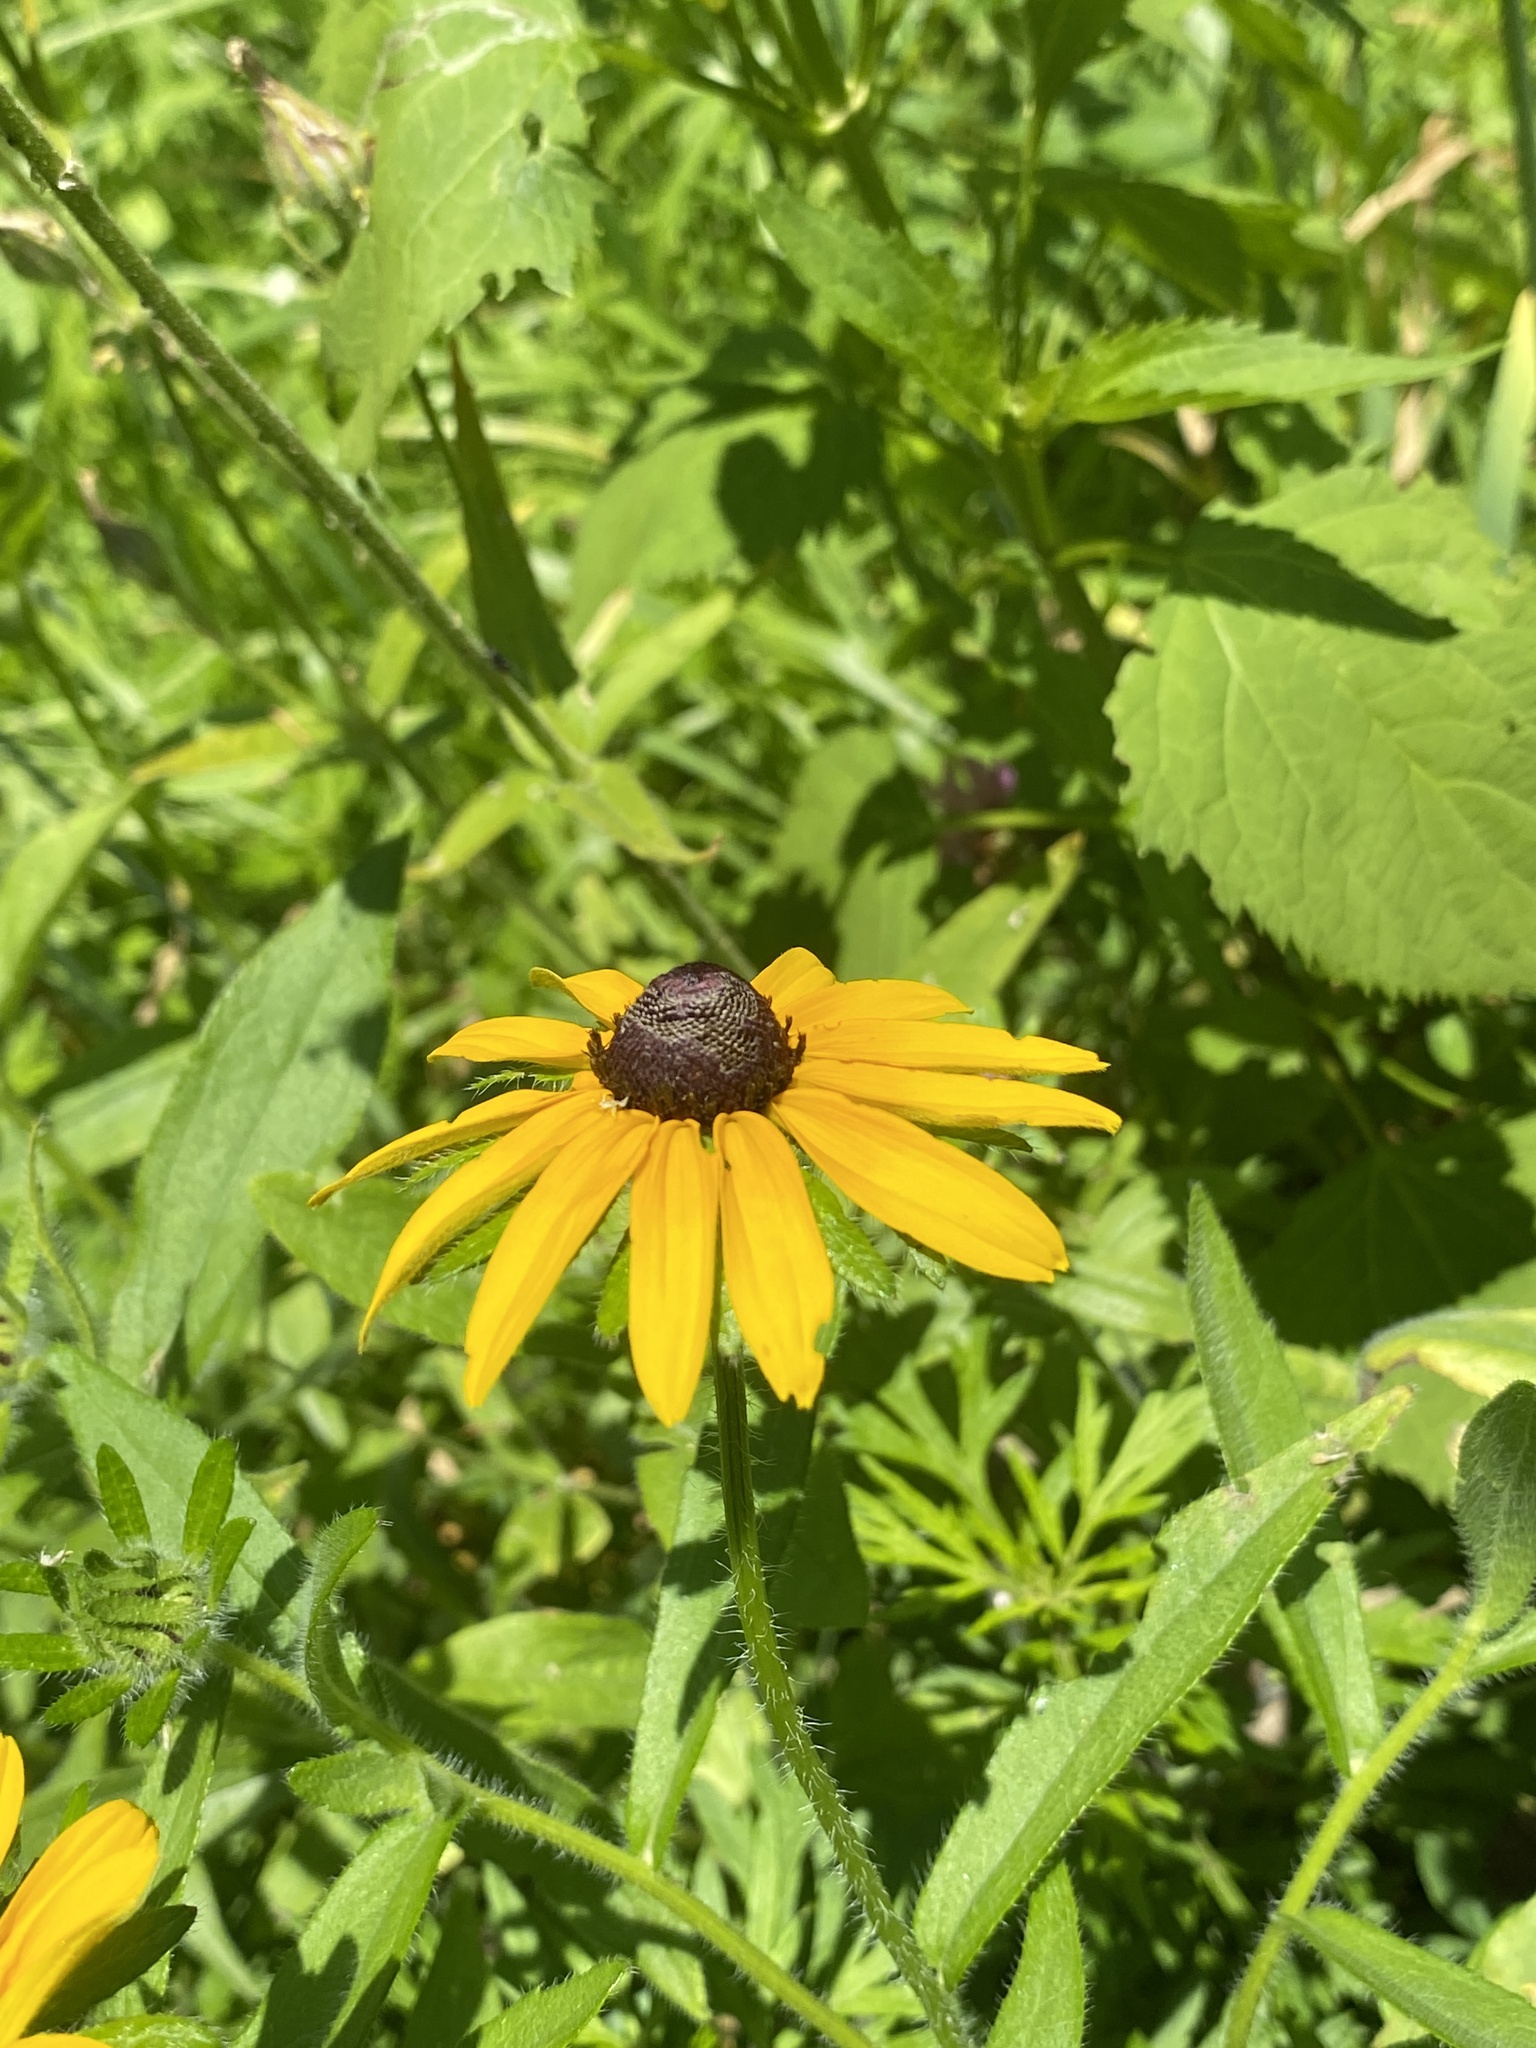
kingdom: Plantae
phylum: Tracheophyta
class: Magnoliopsida
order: Asterales
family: Asteraceae
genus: Rudbeckia
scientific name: Rudbeckia hirta
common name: Black-eyed-susan
